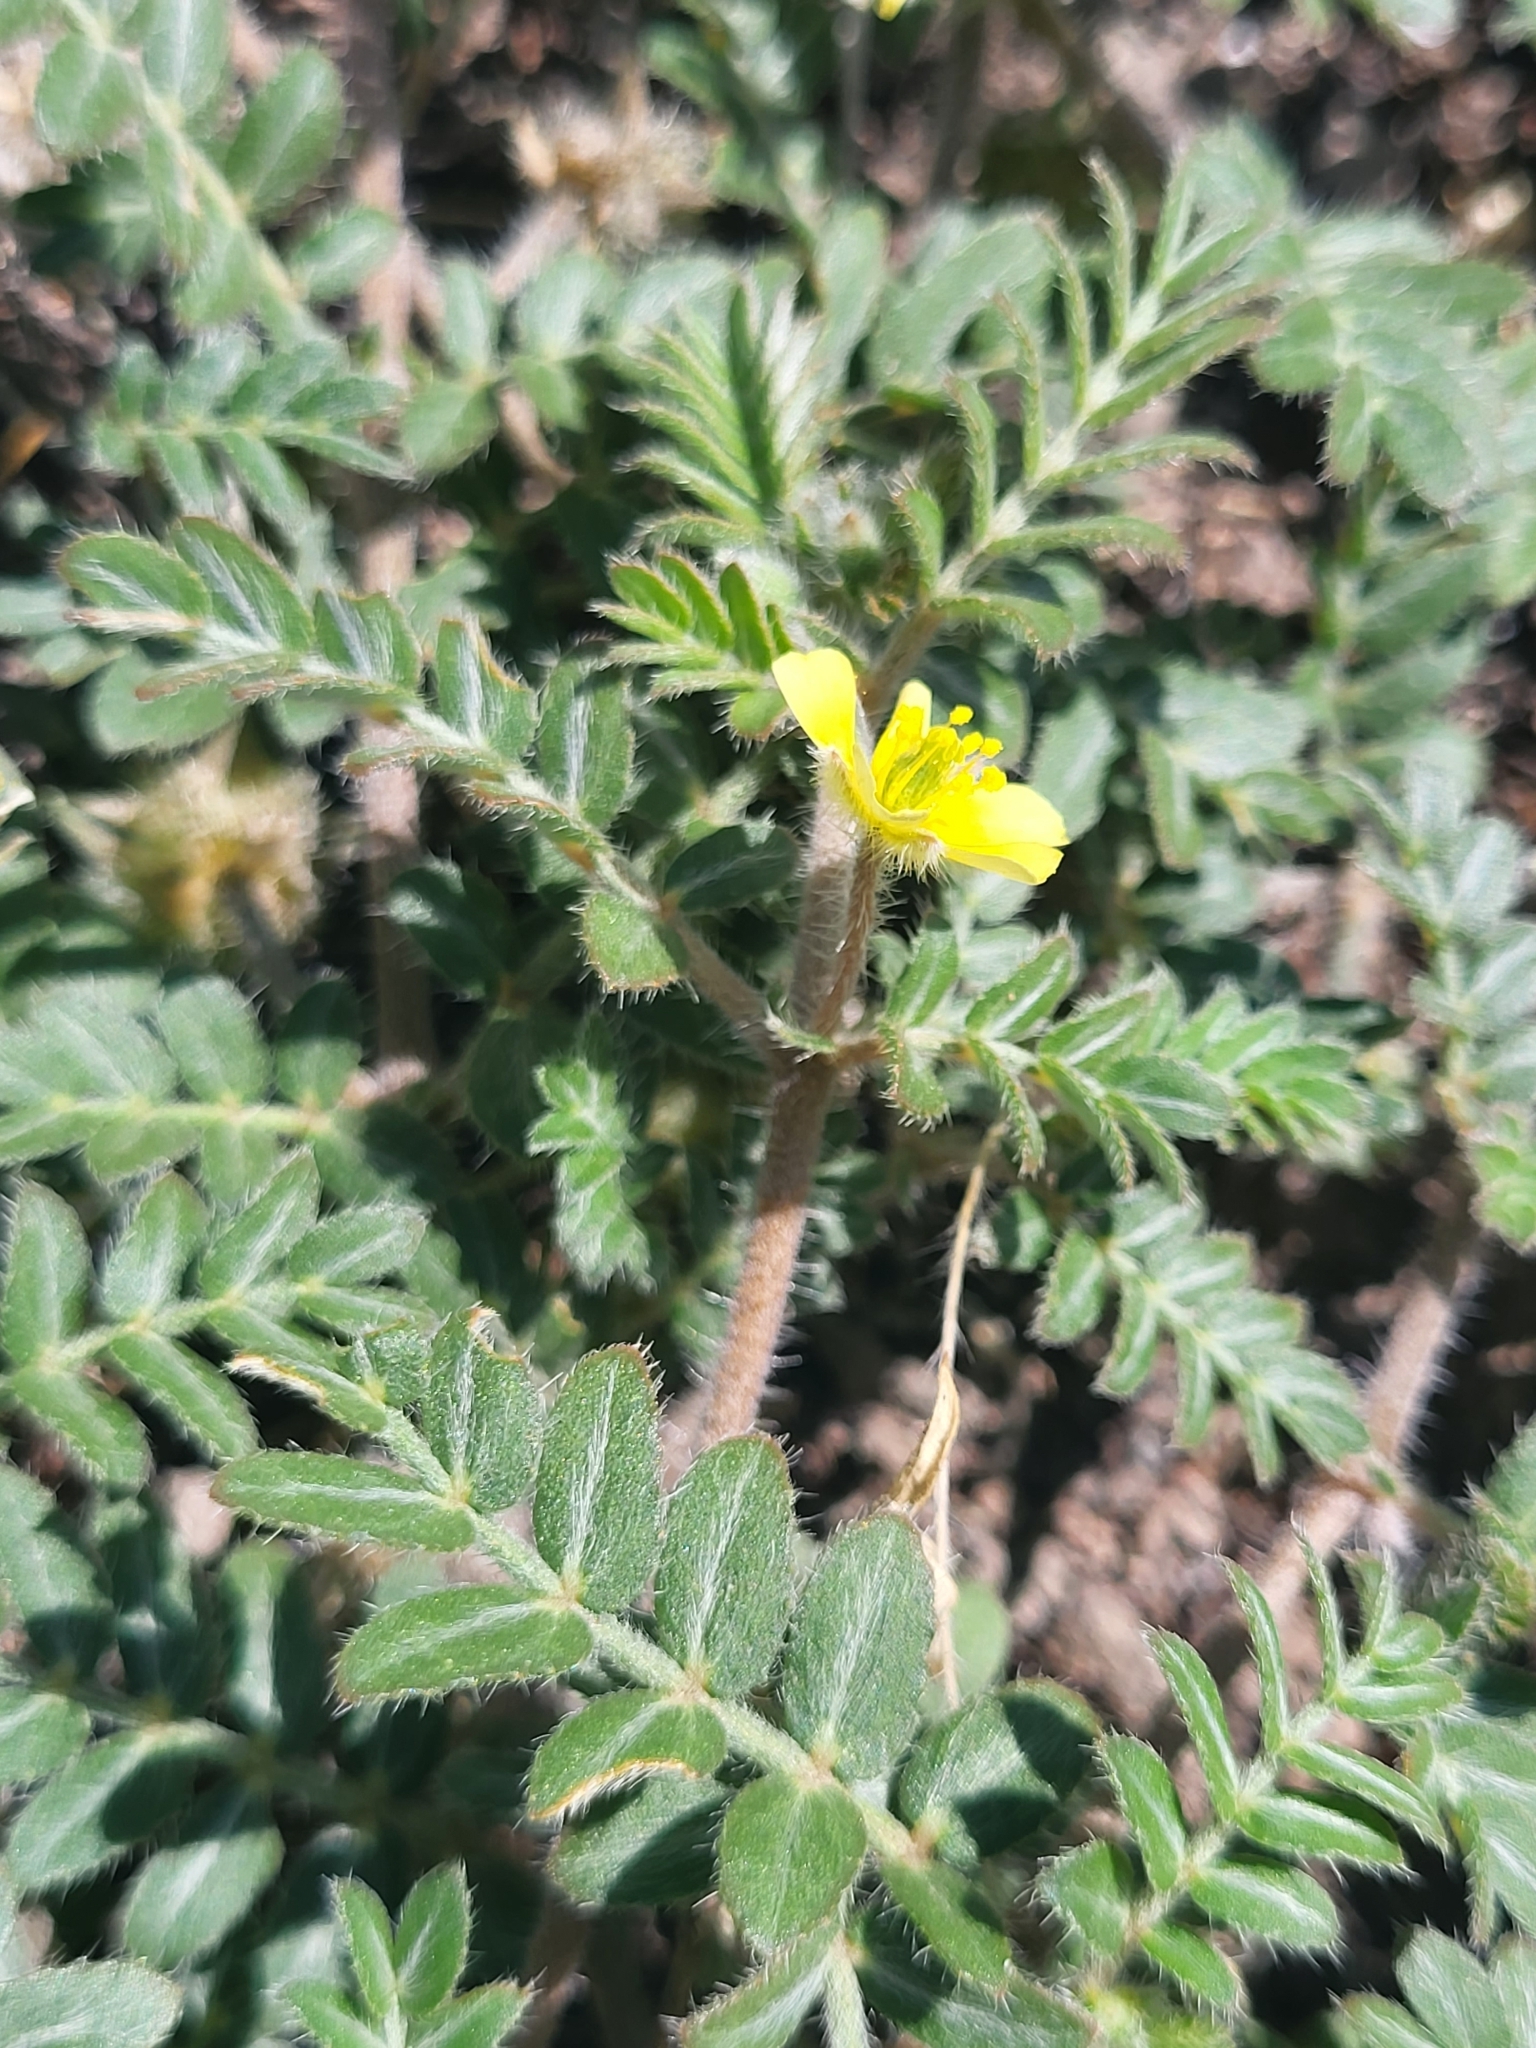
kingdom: Plantae
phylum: Tracheophyta
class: Magnoliopsida
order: Zygophyllales
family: Zygophyllaceae
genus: Tribulus
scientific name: Tribulus terrestris
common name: Puncturevine
